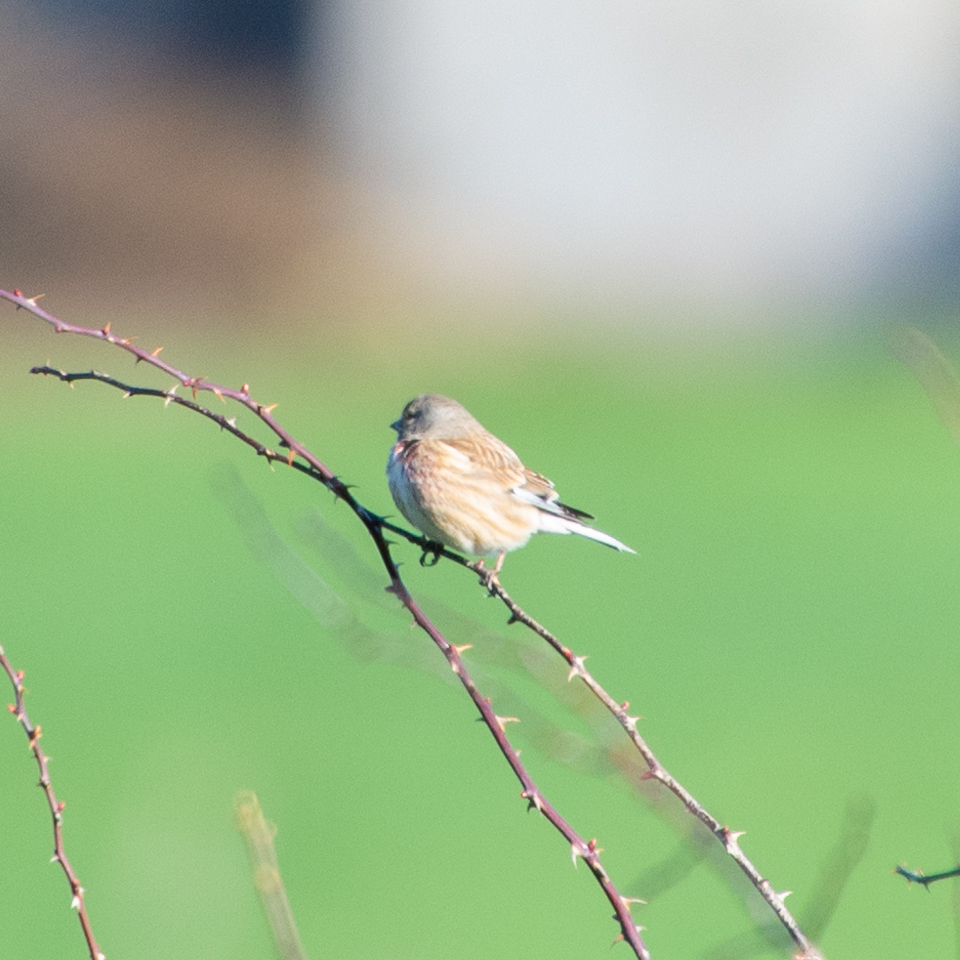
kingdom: Animalia
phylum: Chordata
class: Aves
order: Passeriformes
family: Fringillidae
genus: Linaria
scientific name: Linaria cannabina
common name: Common linnet
